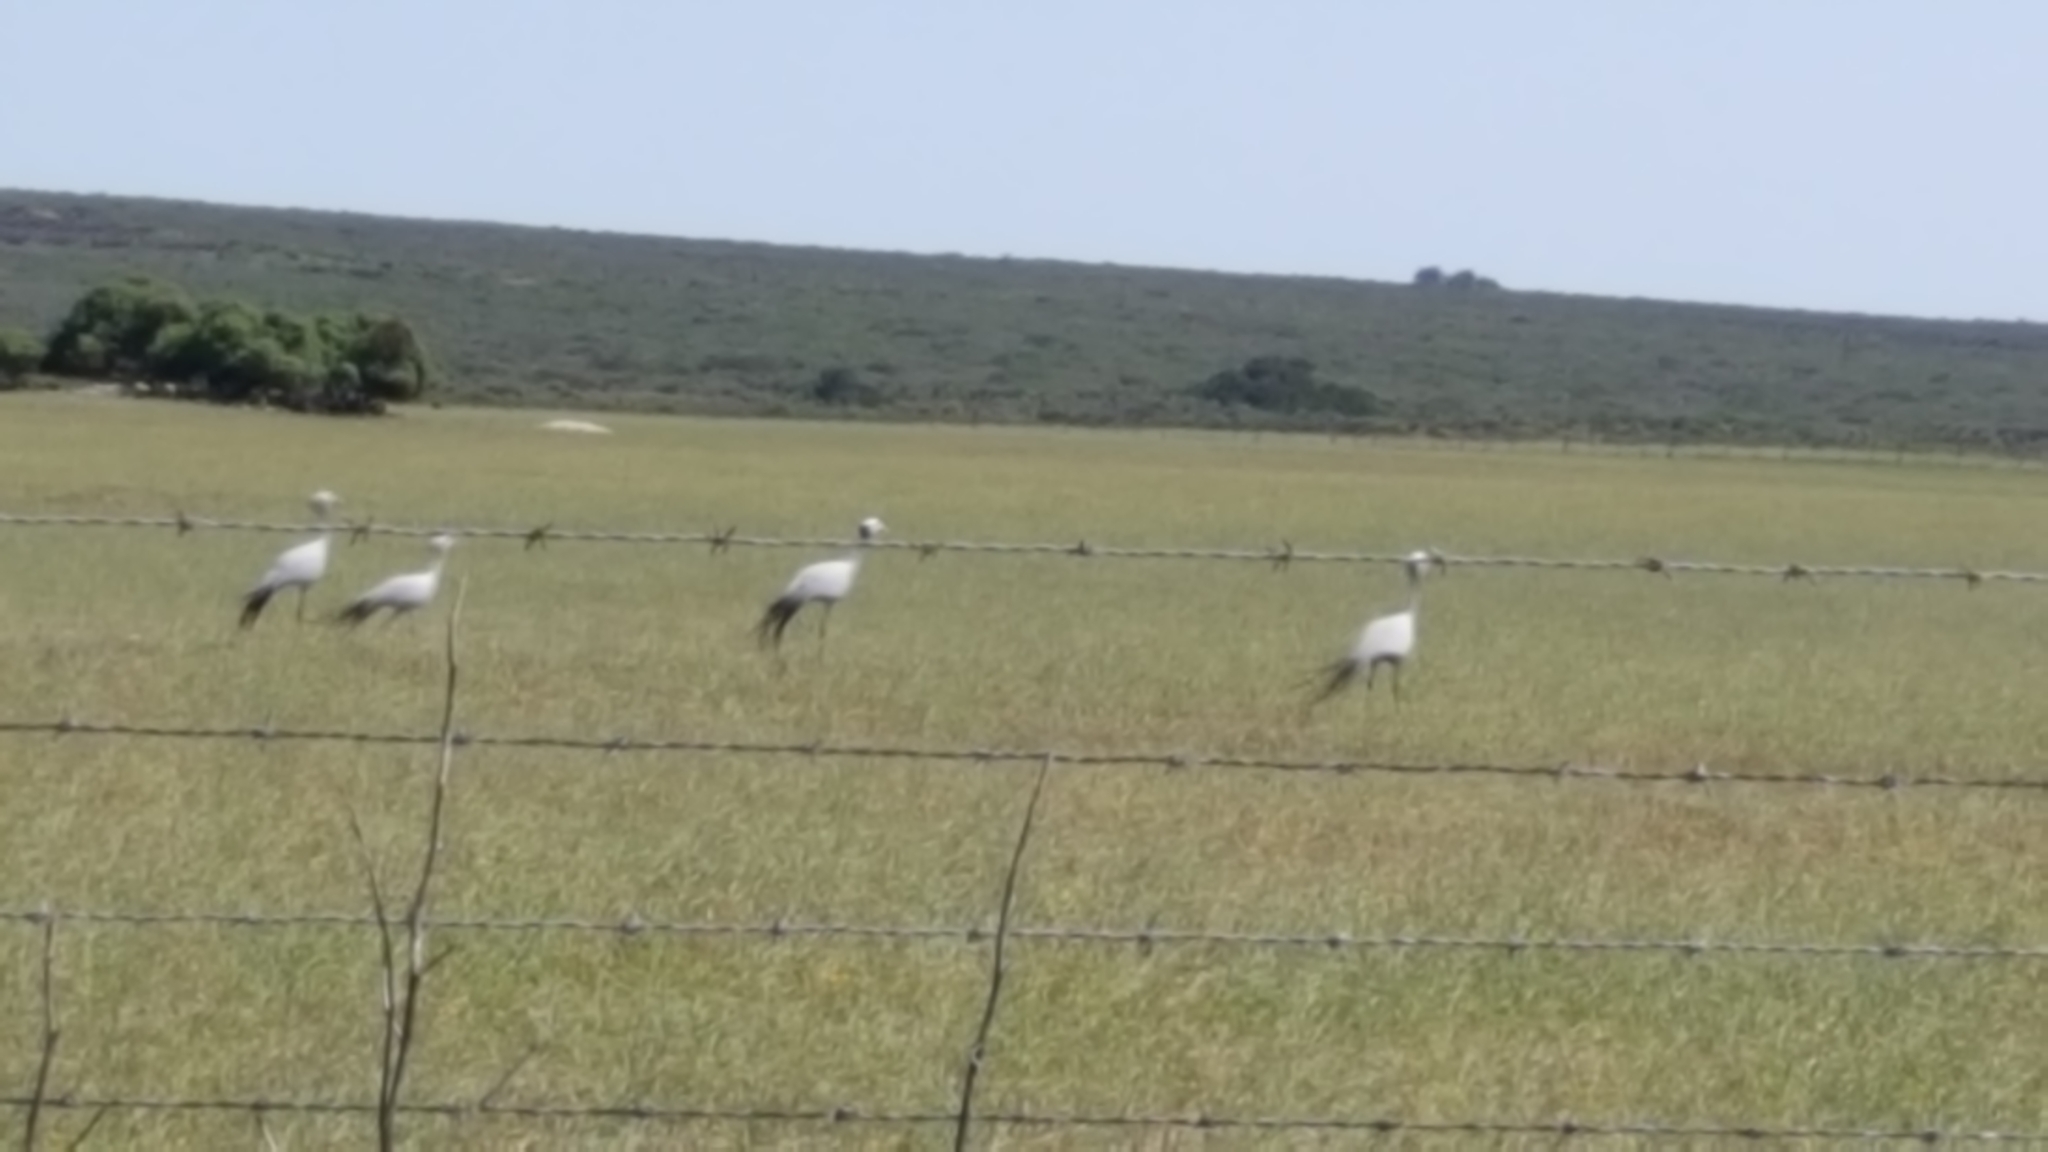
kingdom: Animalia
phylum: Chordata
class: Aves
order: Gruiformes
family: Gruidae
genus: Anthropoides
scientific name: Anthropoides paradiseus
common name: Blue crane
